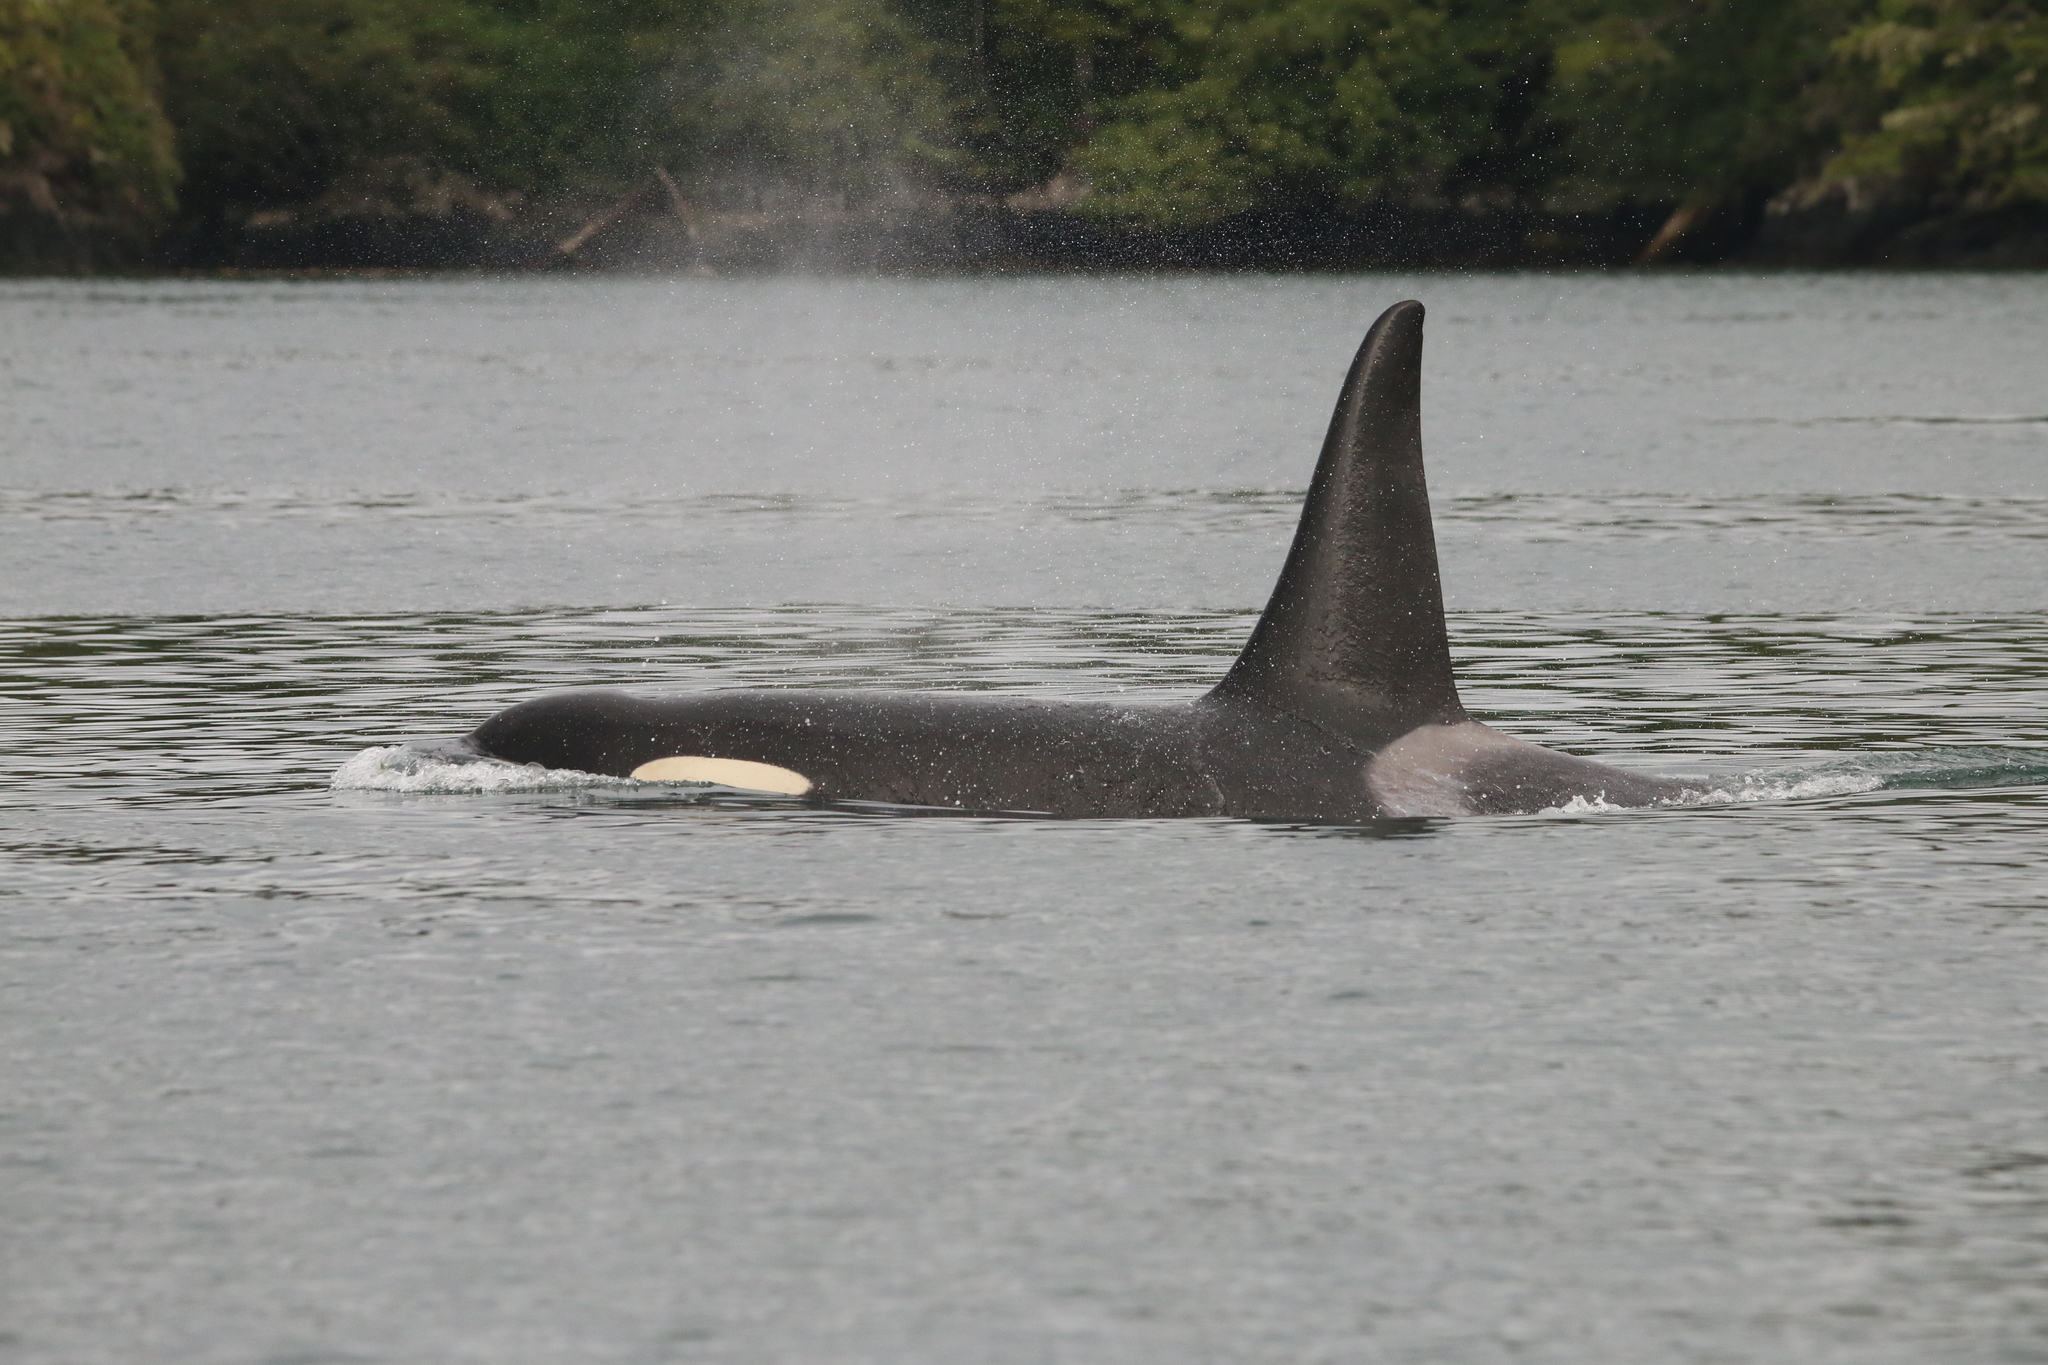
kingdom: Animalia
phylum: Chordata
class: Mammalia
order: Cetacea
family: Delphinidae
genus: Orcinus
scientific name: Orcinus orca
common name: Killer whale
